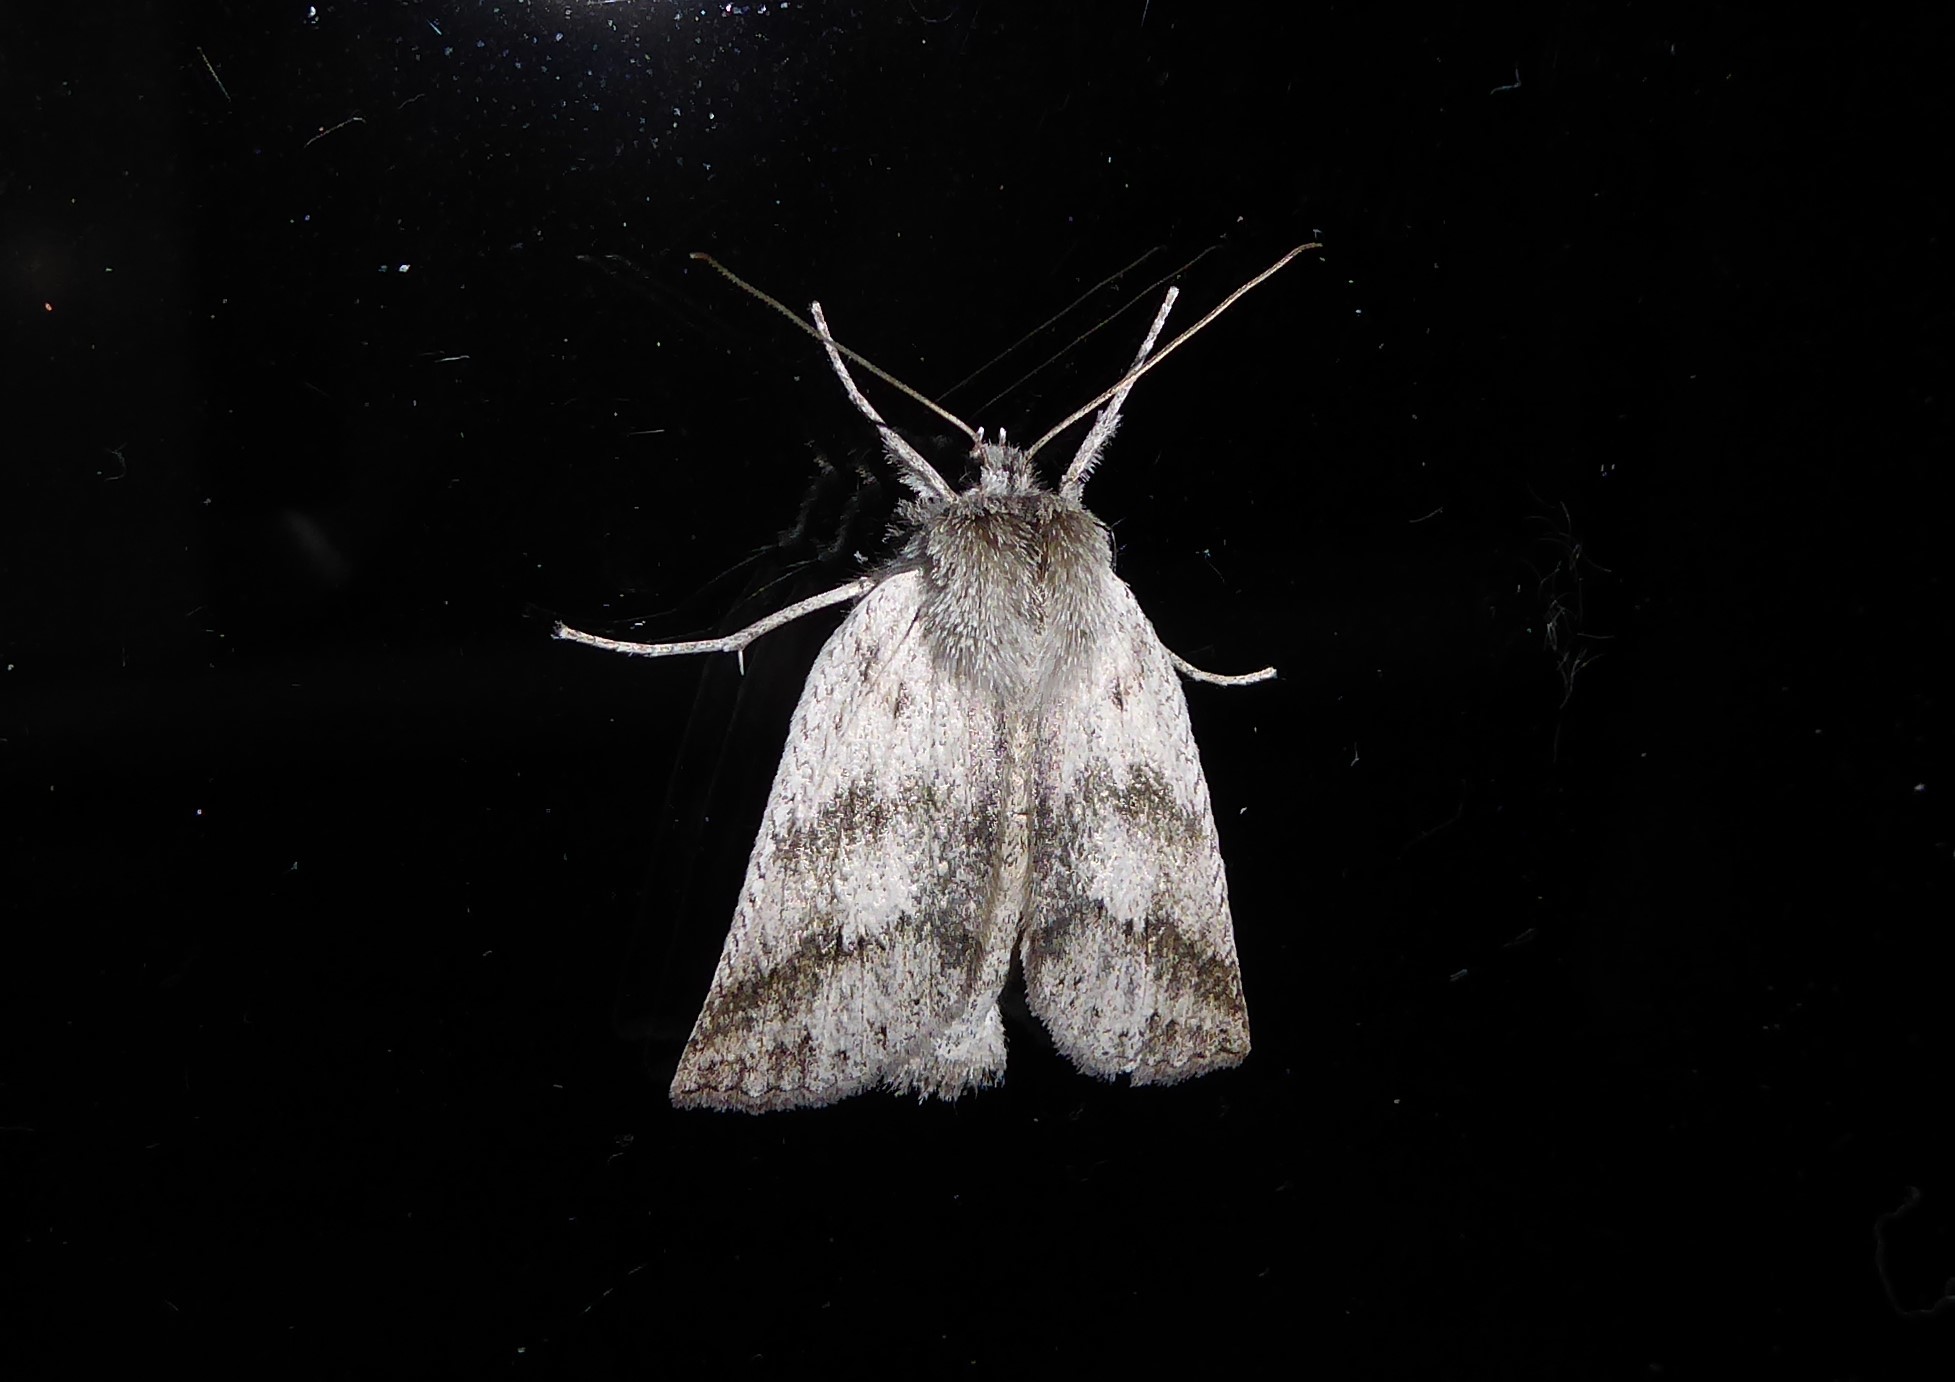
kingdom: Animalia
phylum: Arthropoda
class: Insecta
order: Lepidoptera
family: Geometridae
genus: Declana
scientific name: Declana leptomera
